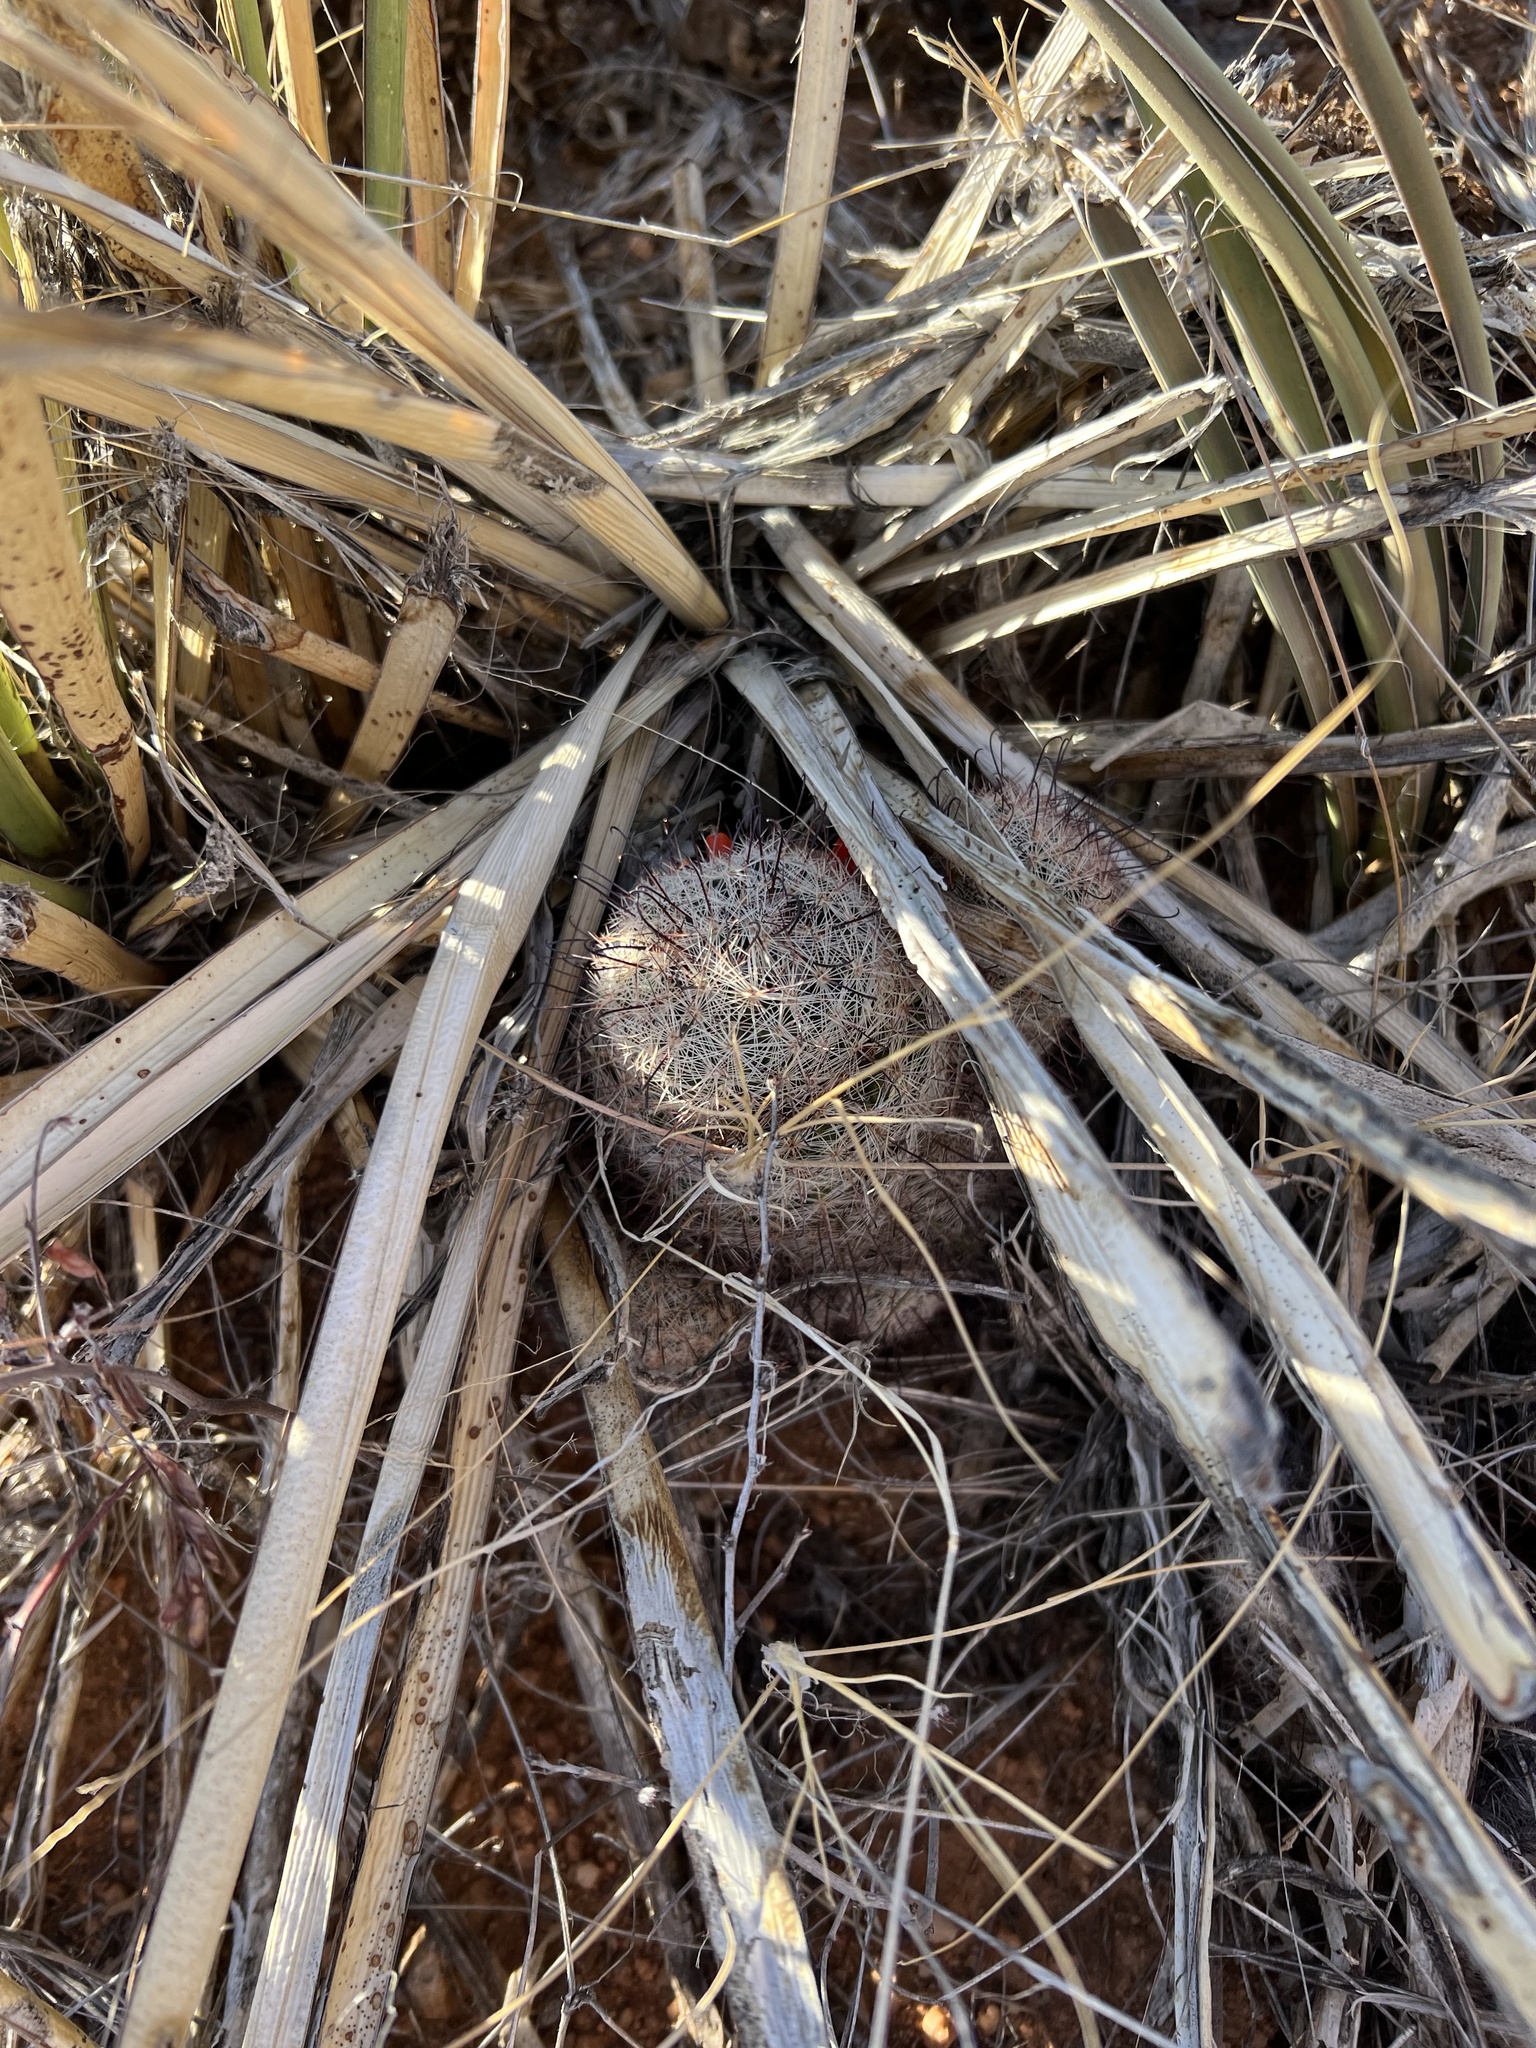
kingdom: Plantae
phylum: Tracheophyta
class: Magnoliopsida
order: Caryophyllales
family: Cactaceae
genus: Cochemiea
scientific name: Cochemiea grahamii
